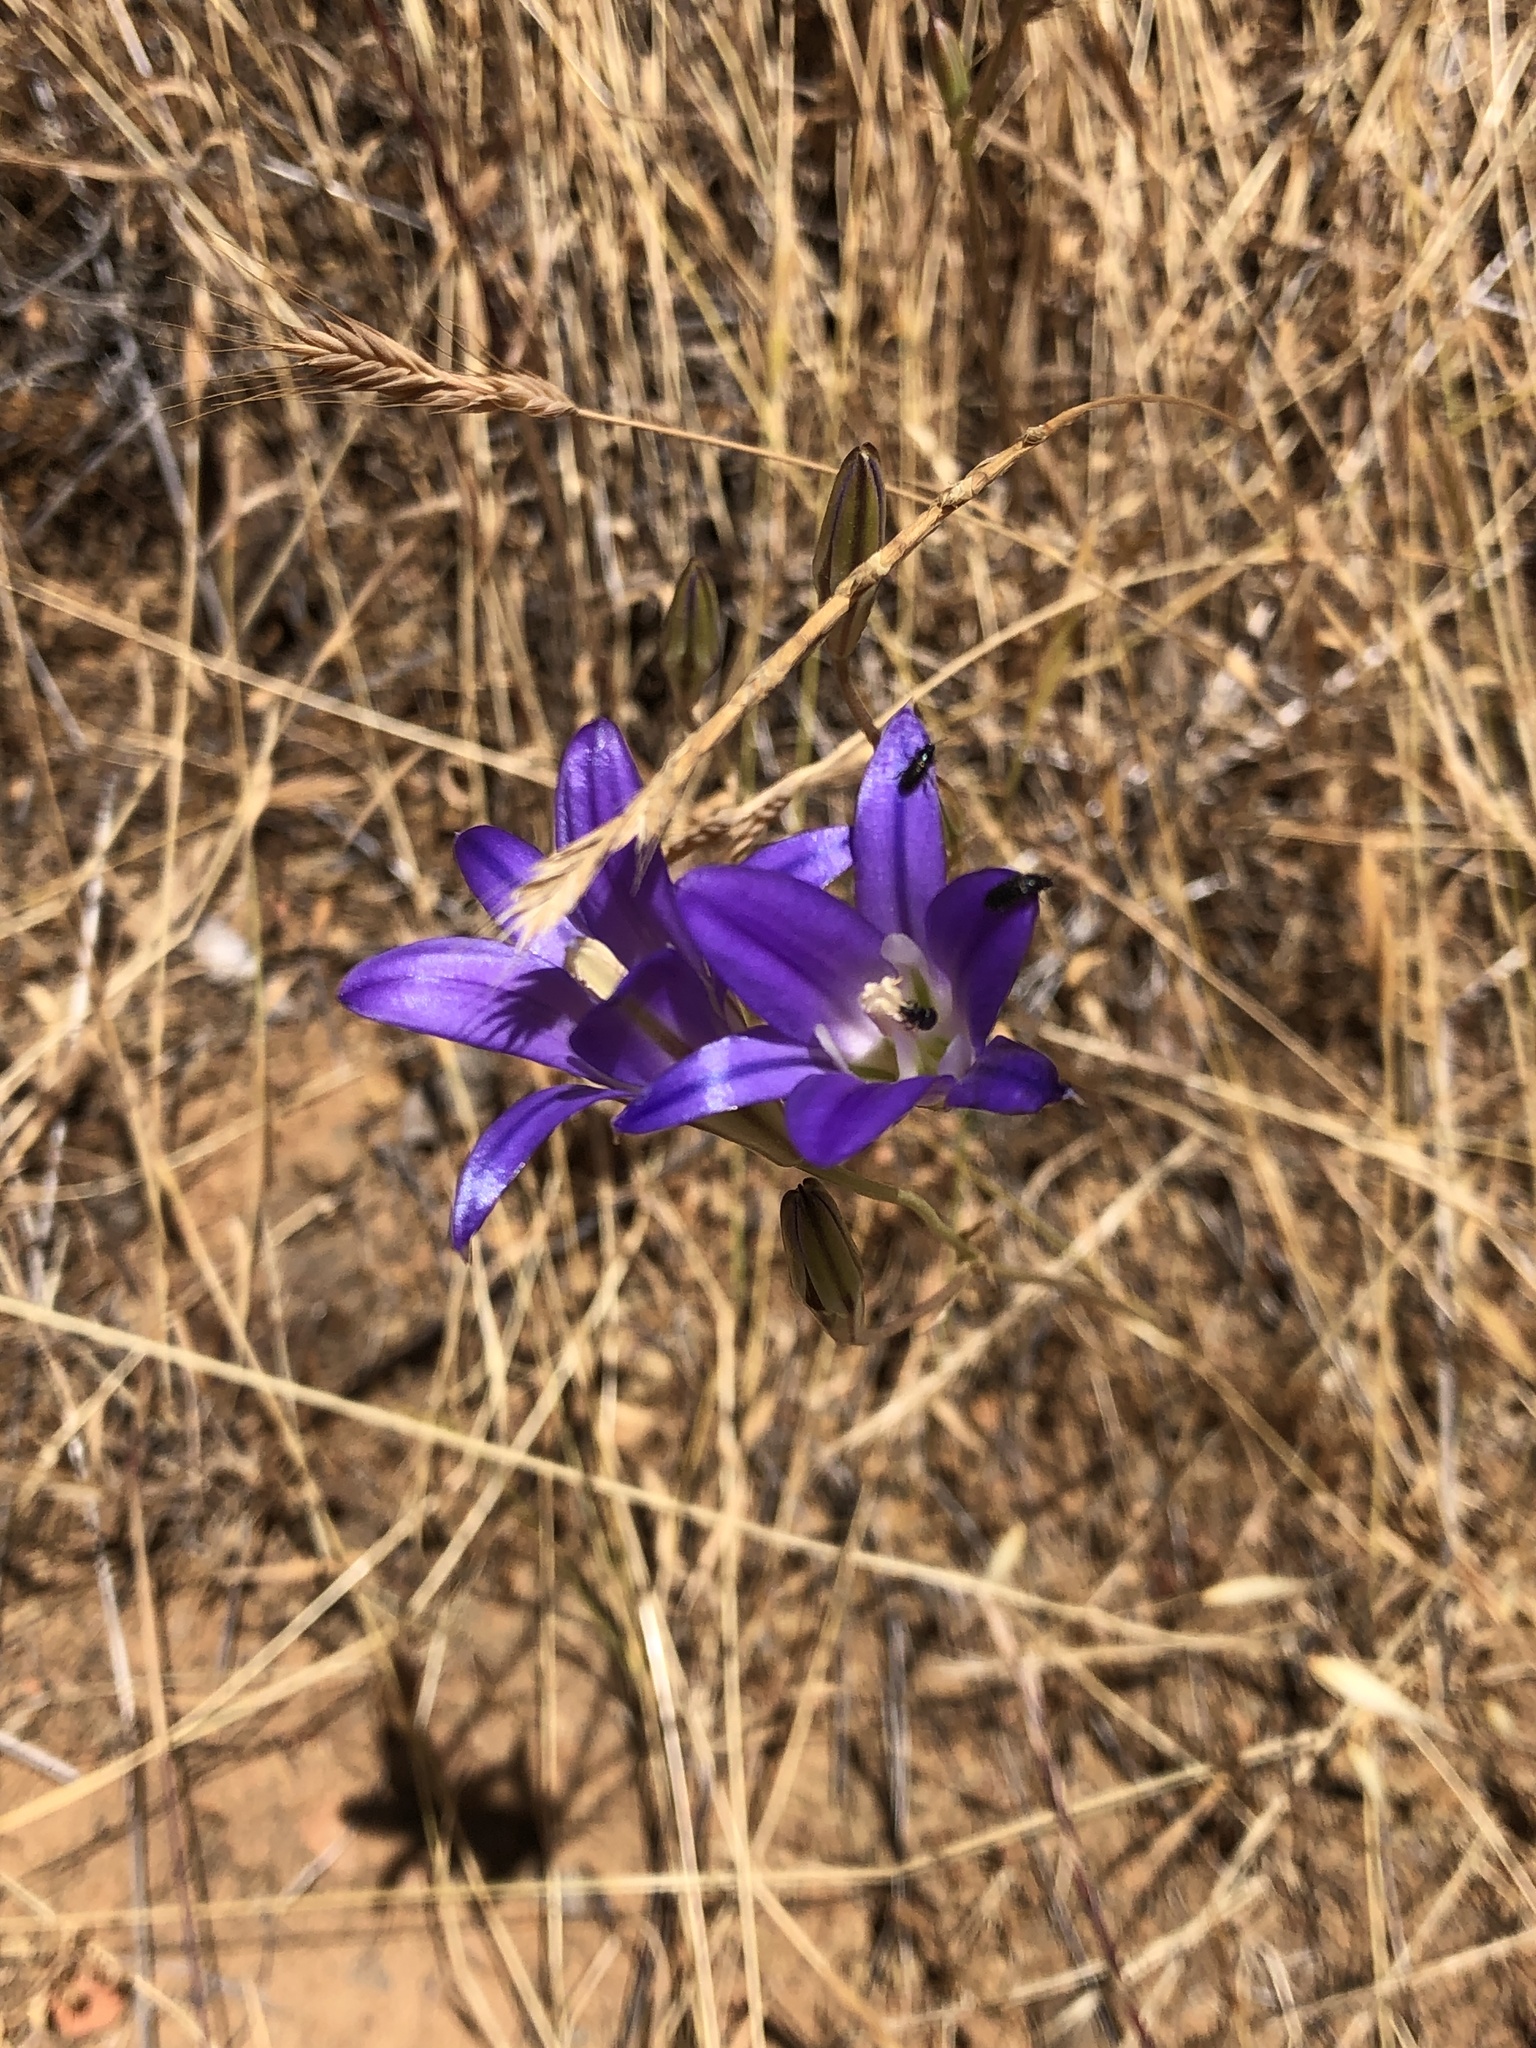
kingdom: Plantae
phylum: Tracheophyta
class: Liliopsida
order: Asparagales
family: Asparagaceae
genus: Brodiaea
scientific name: Brodiaea elegans
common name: Elegant cluster-lily
